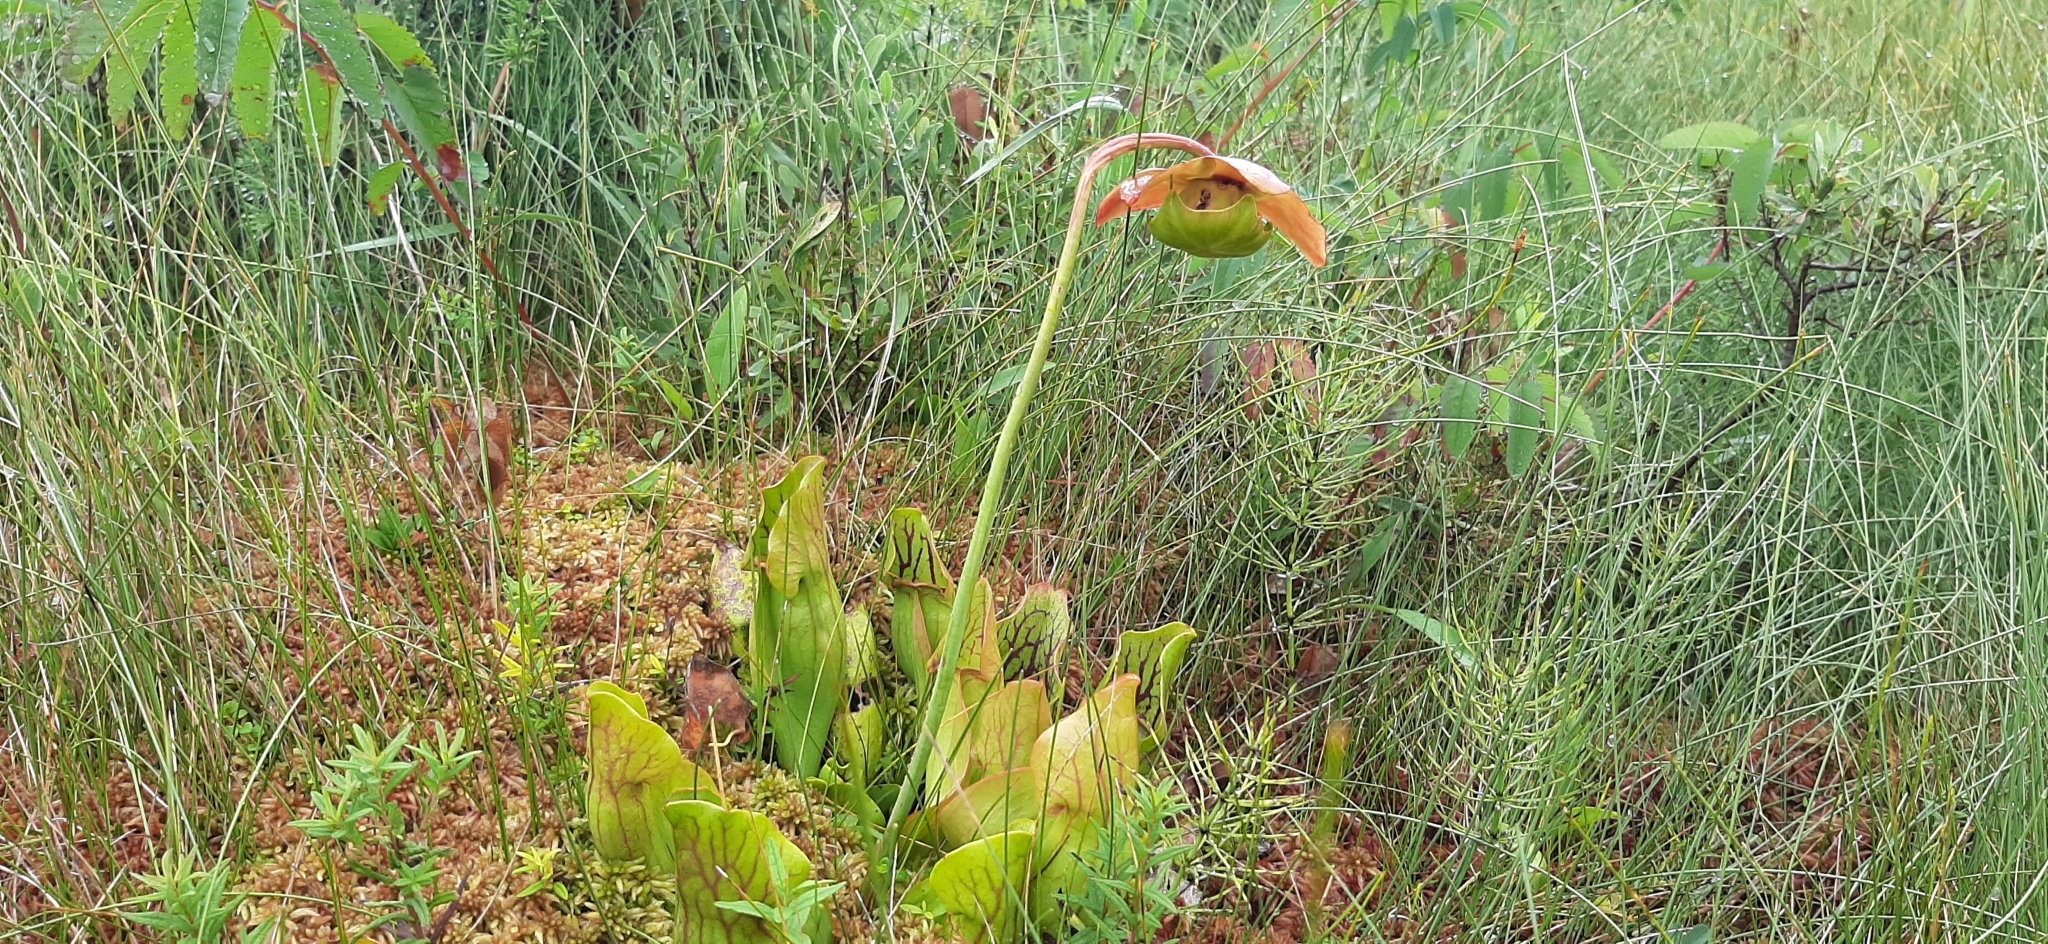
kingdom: Plantae
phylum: Tracheophyta
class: Magnoliopsida
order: Ericales
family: Sarraceniaceae
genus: Sarracenia
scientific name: Sarracenia purpurea
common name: Pitcherplant
